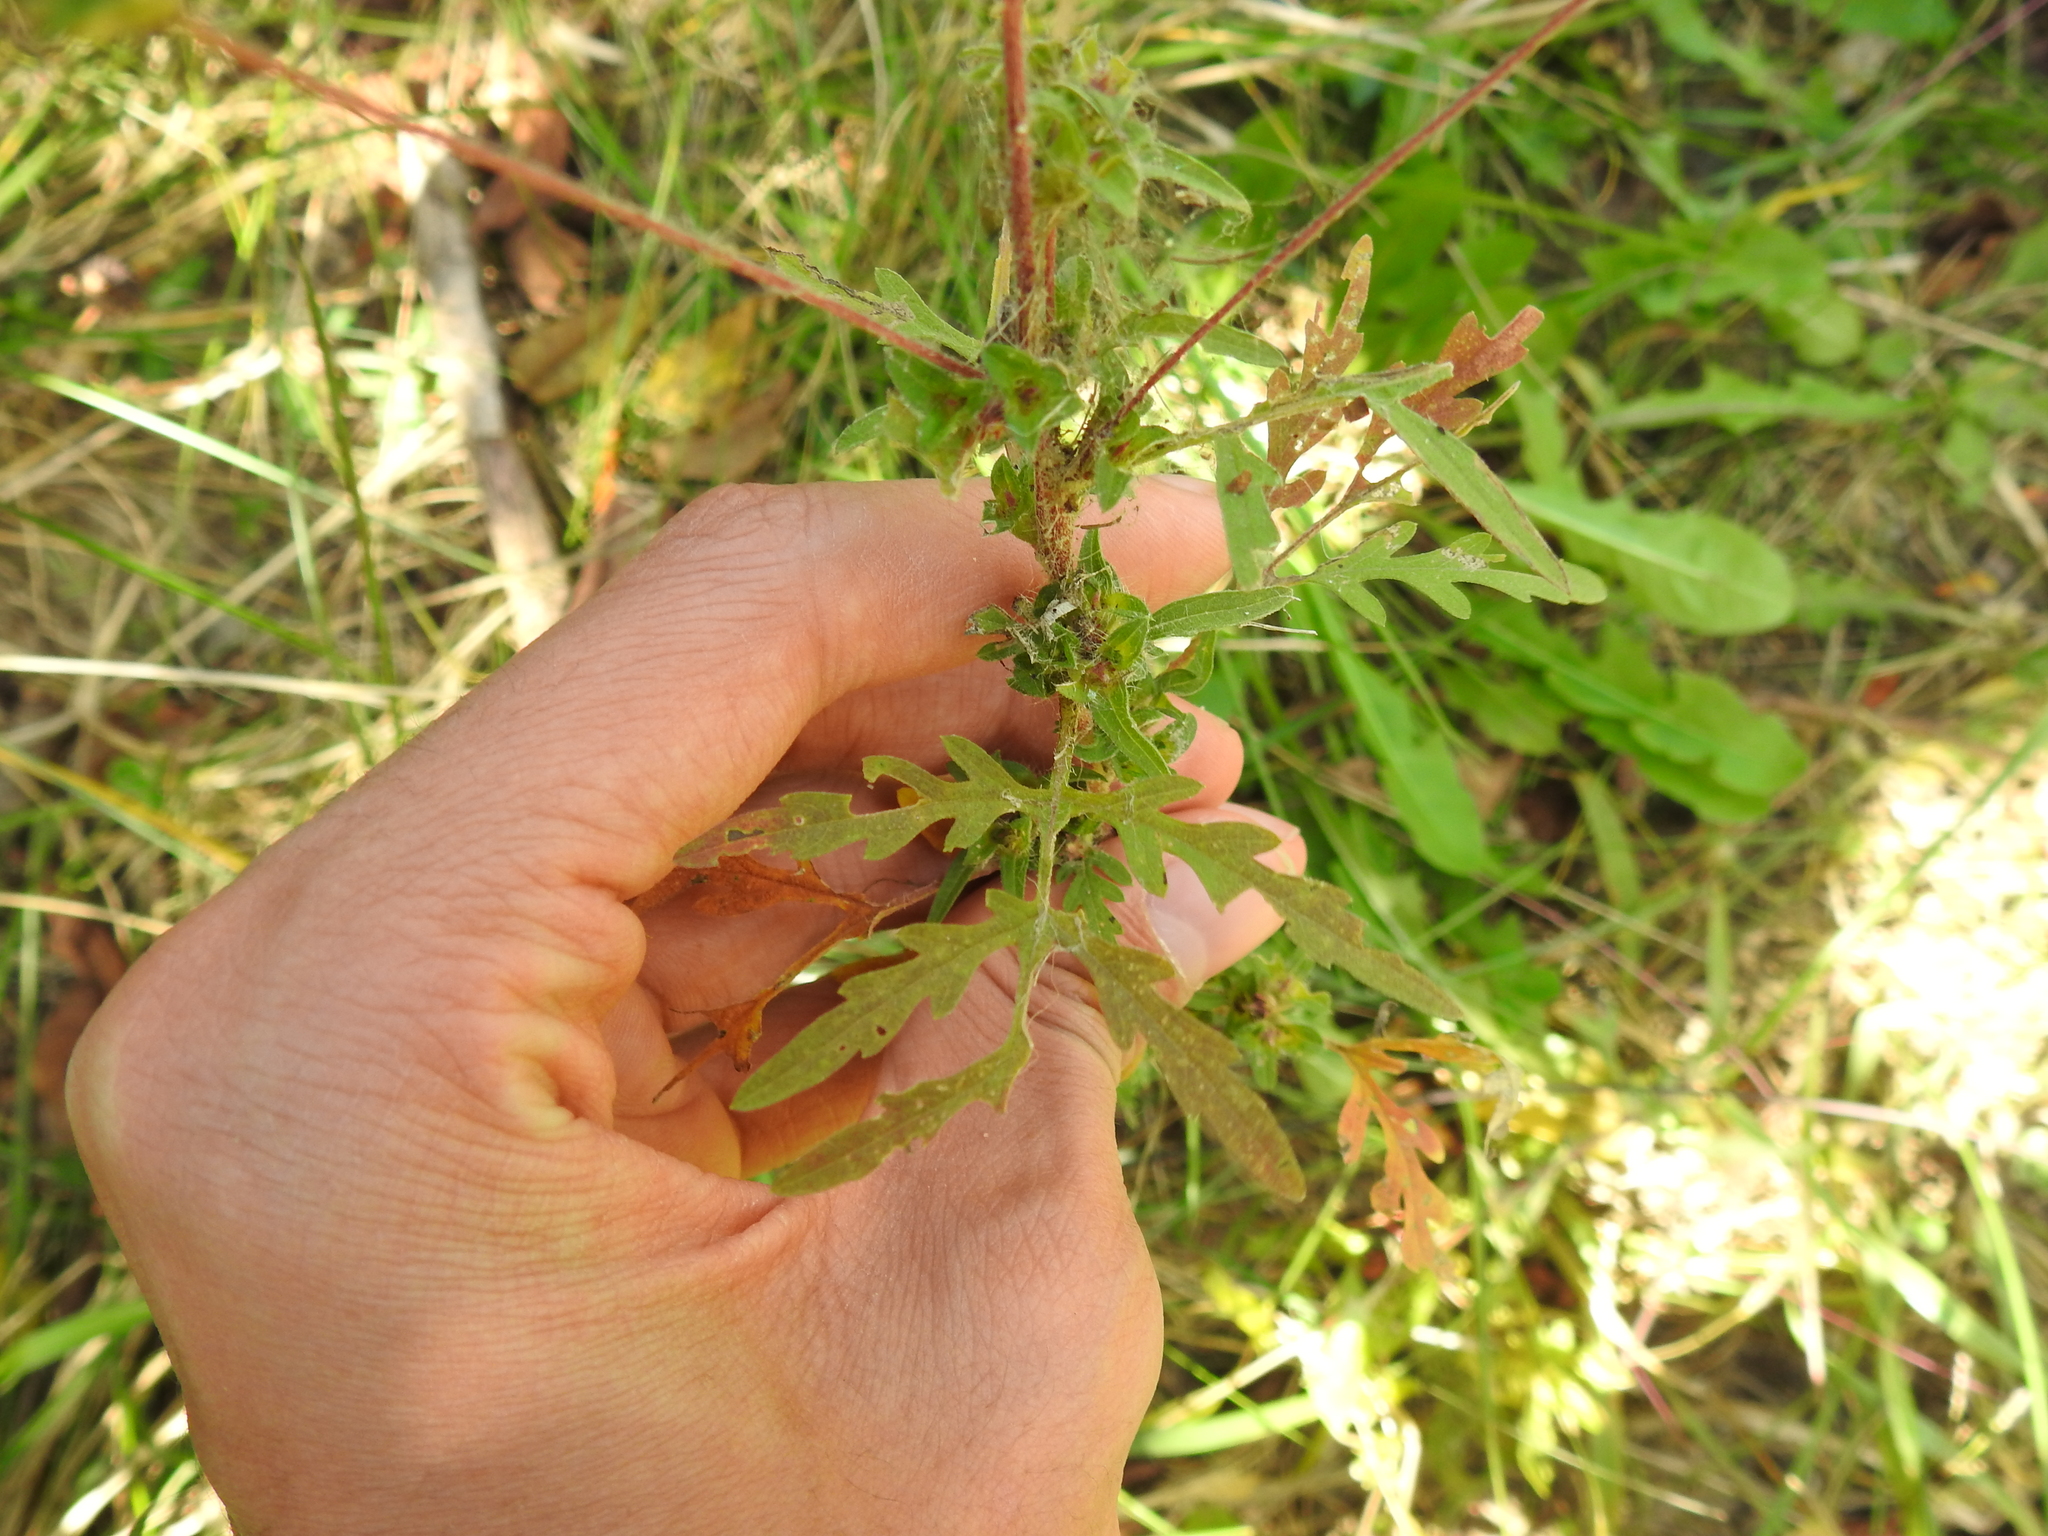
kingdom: Plantae
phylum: Tracheophyta
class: Magnoliopsida
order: Asterales
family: Asteraceae
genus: Ambrosia
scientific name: Ambrosia artemisiifolia
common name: Annual ragweed
